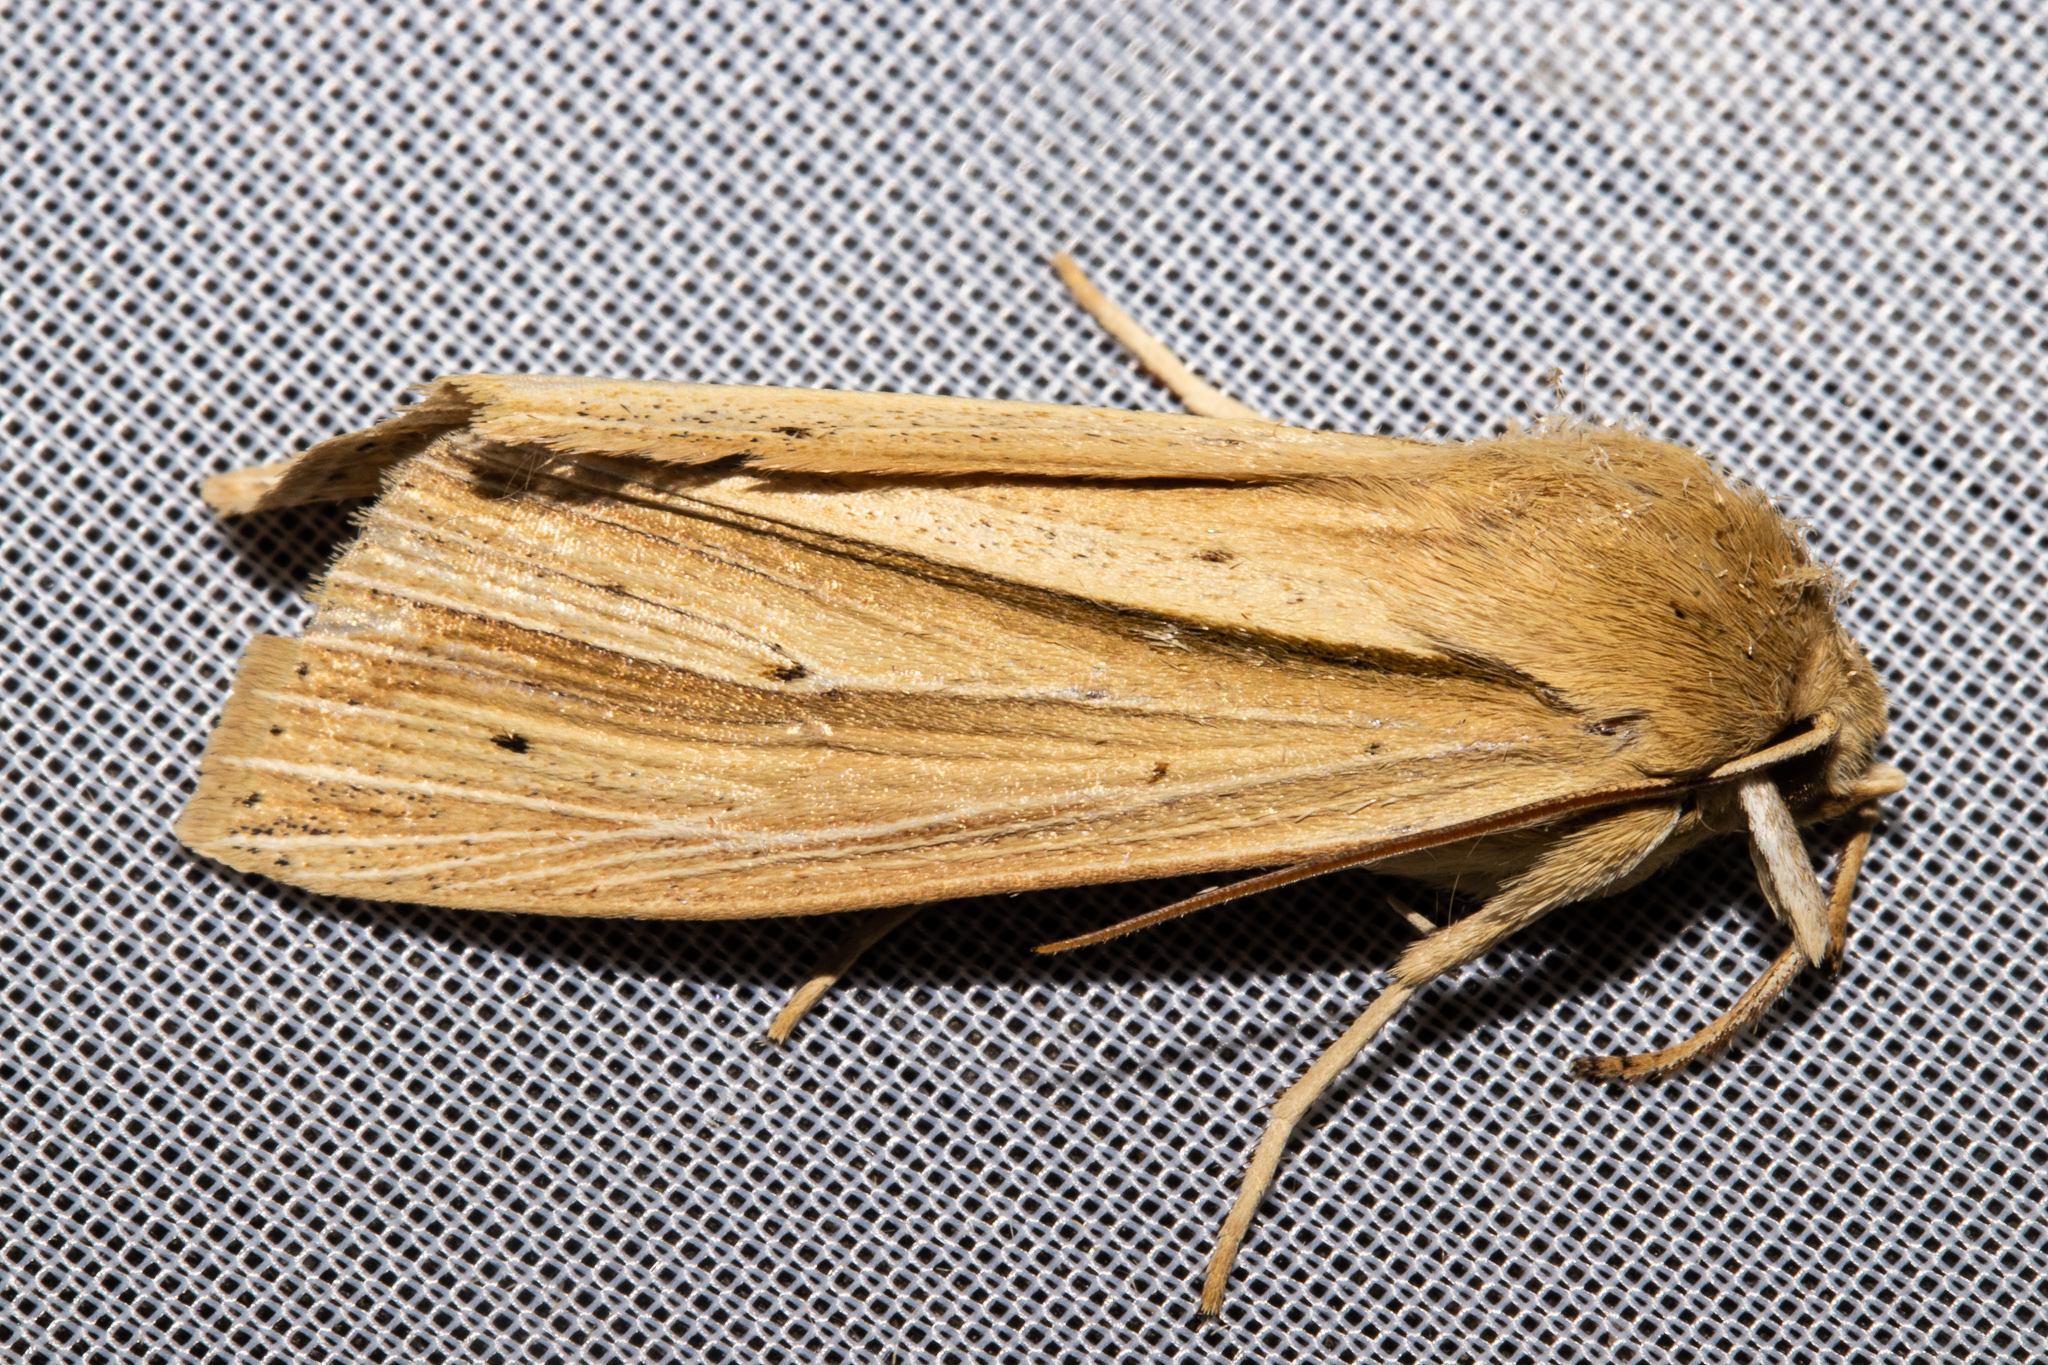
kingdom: Animalia
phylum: Arthropoda
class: Insecta
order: Lepidoptera
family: Noctuidae
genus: Ichneutica
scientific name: Ichneutica sulcana
